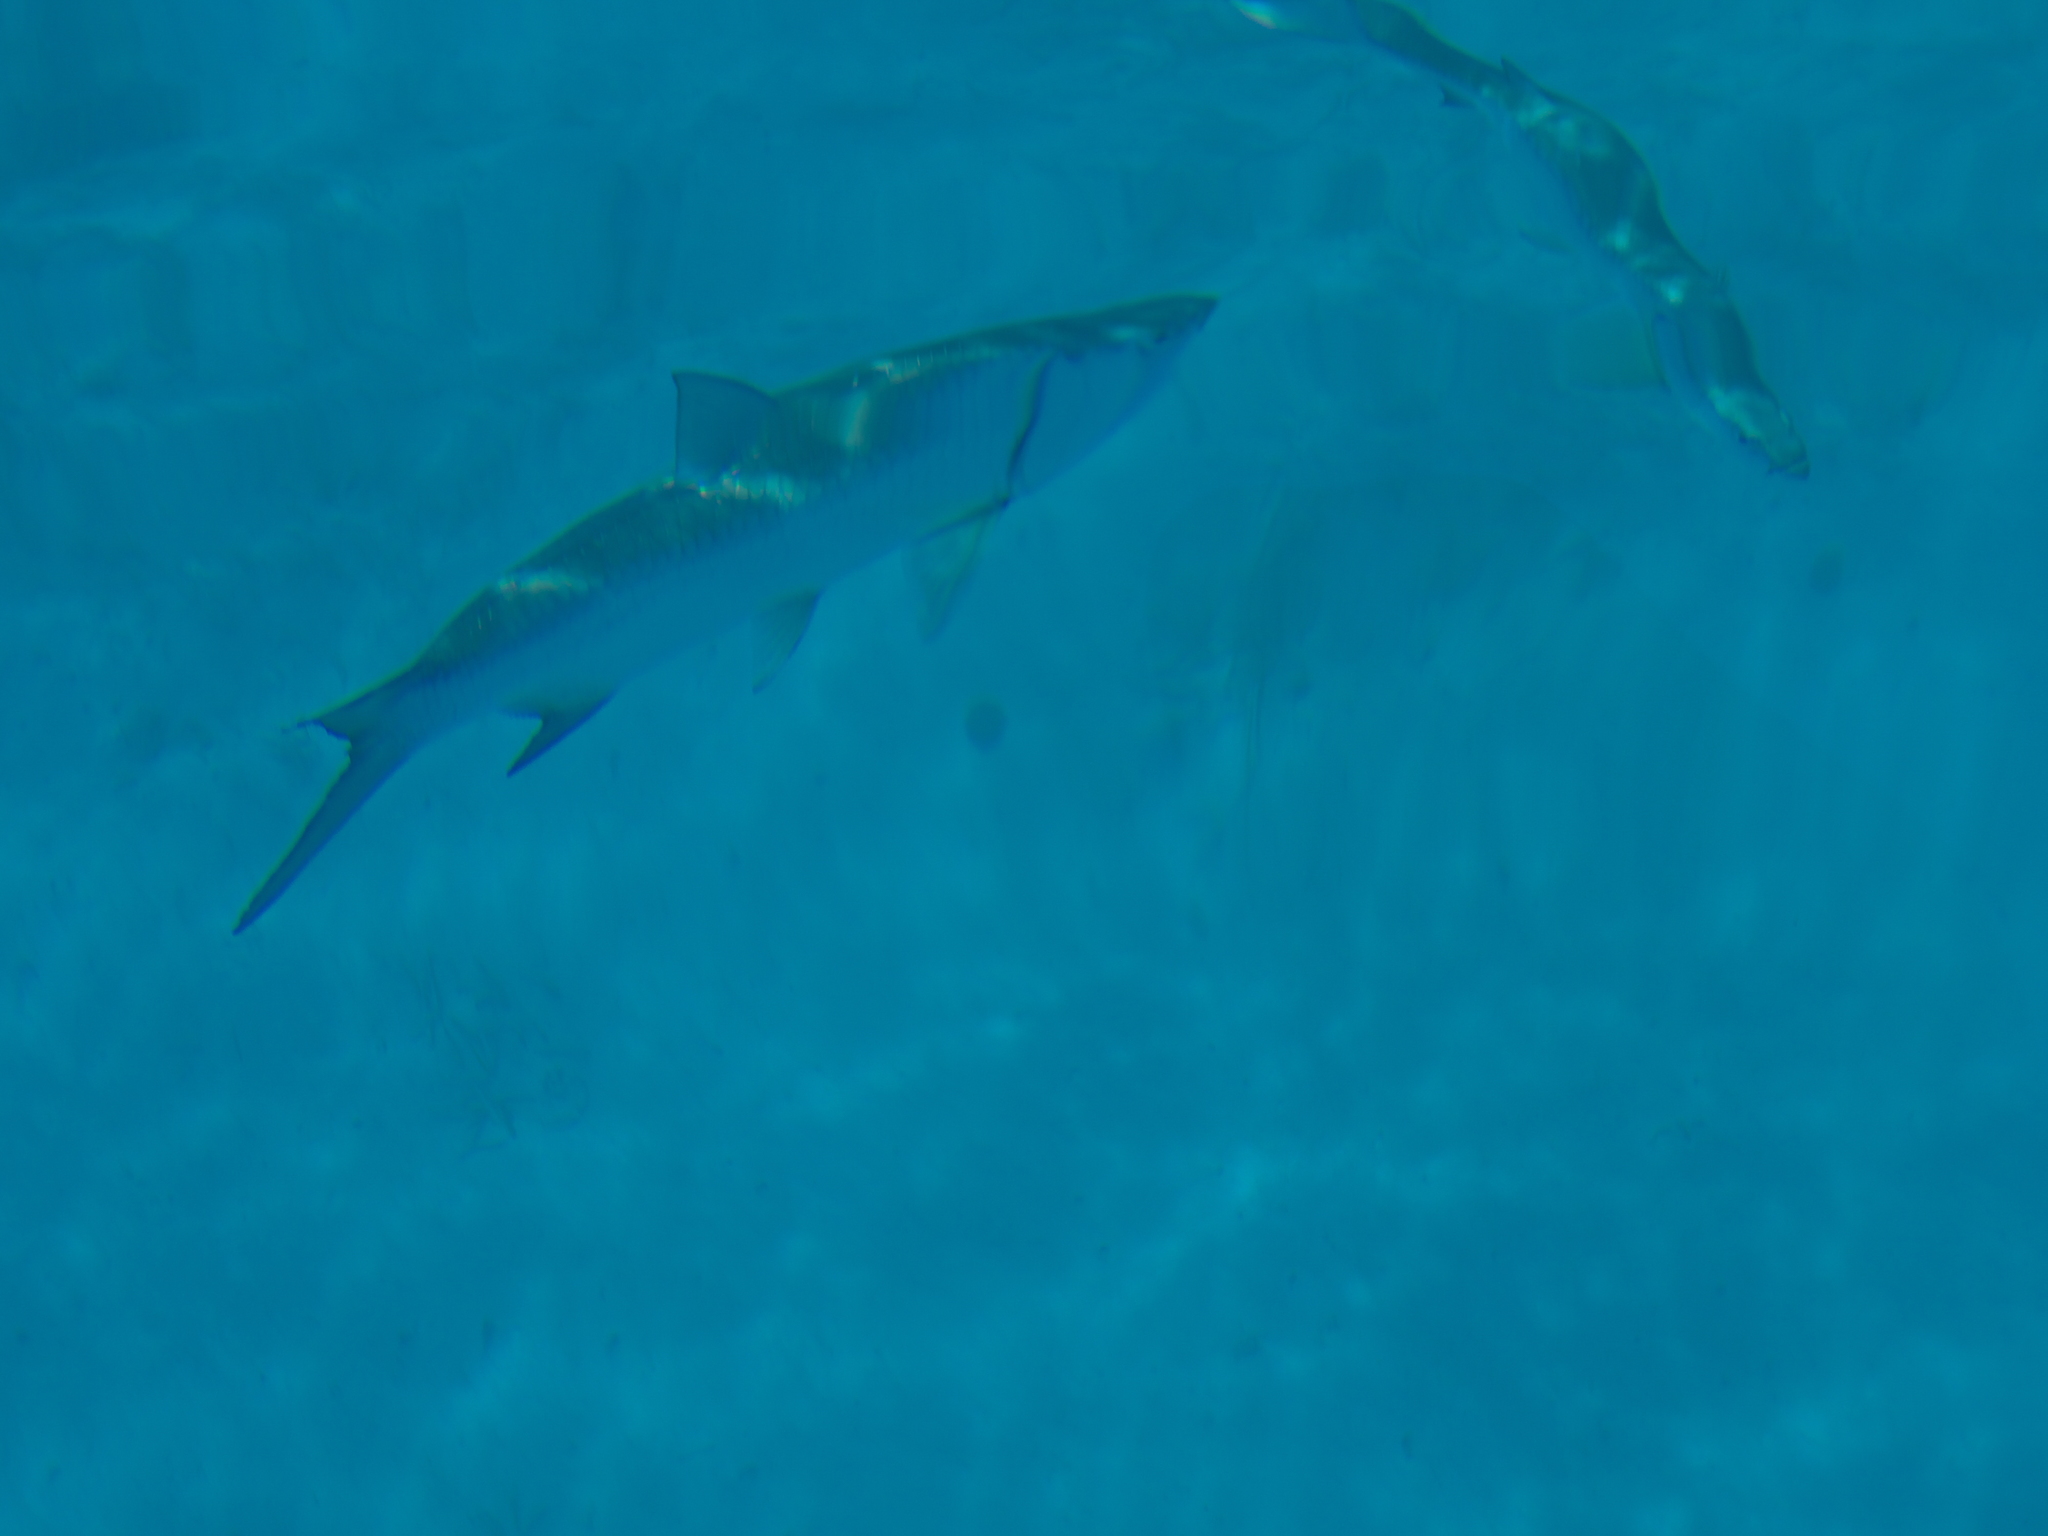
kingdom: Animalia
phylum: Chordata
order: Elopiformes
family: Megalopidae
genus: Megalops
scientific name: Megalops atlanticus
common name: Tarpon
